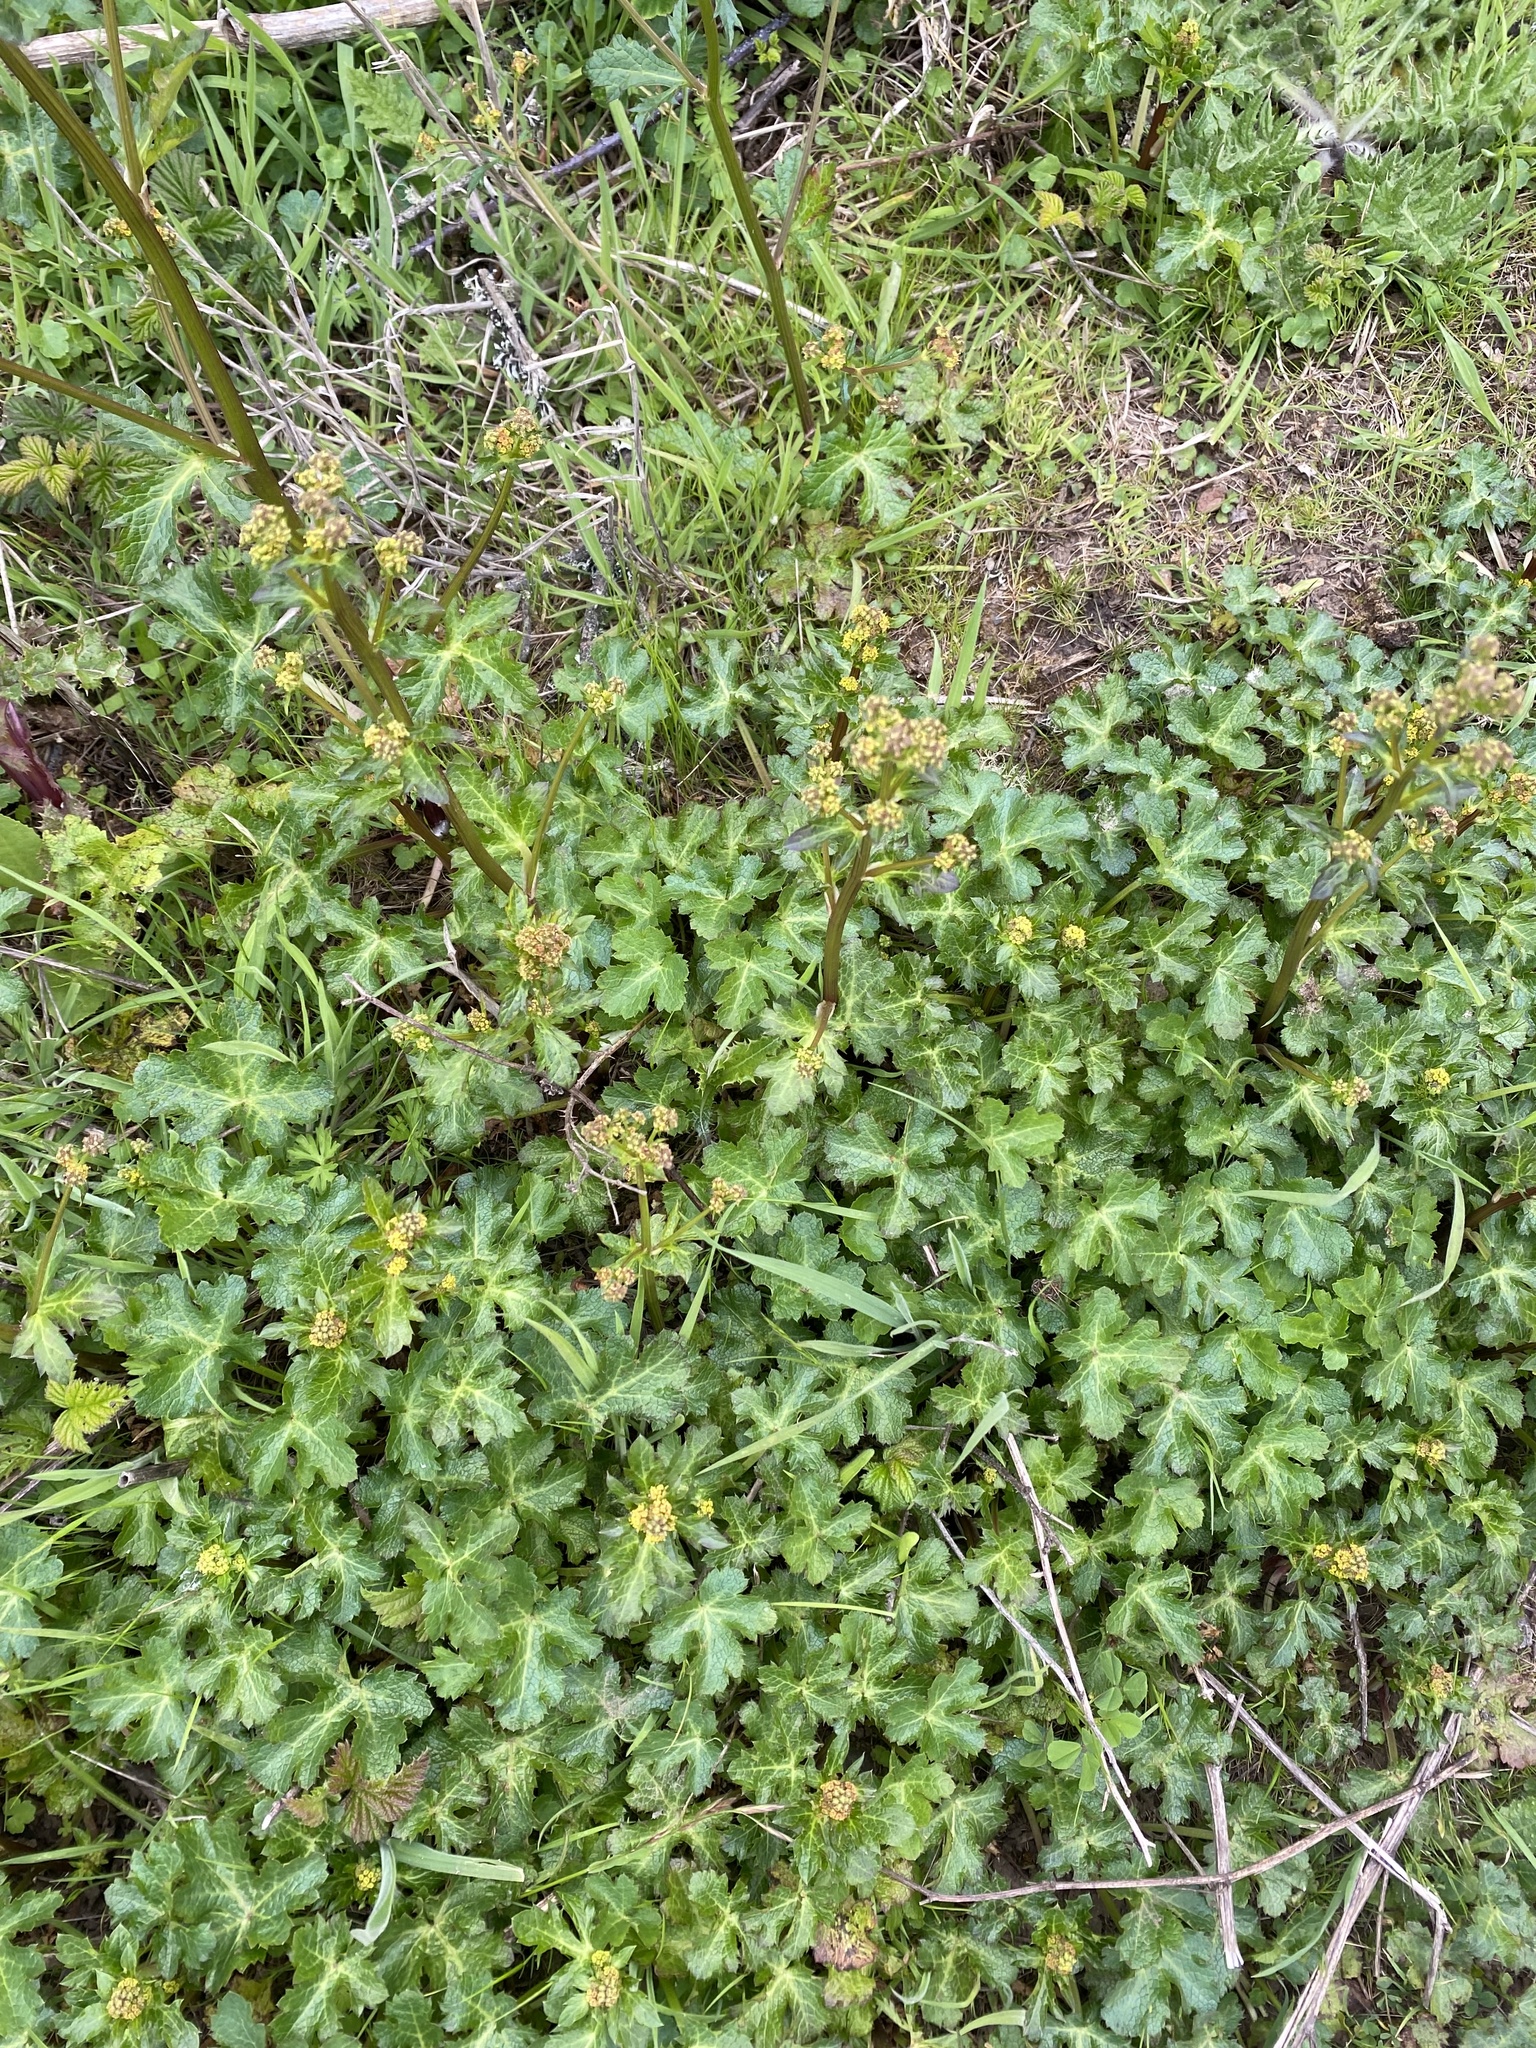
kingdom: Plantae
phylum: Tracheophyta
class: Magnoliopsida
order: Apiales
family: Apiaceae
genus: Sanicula
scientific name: Sanicula crassicaulis
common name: Western snakeroot
